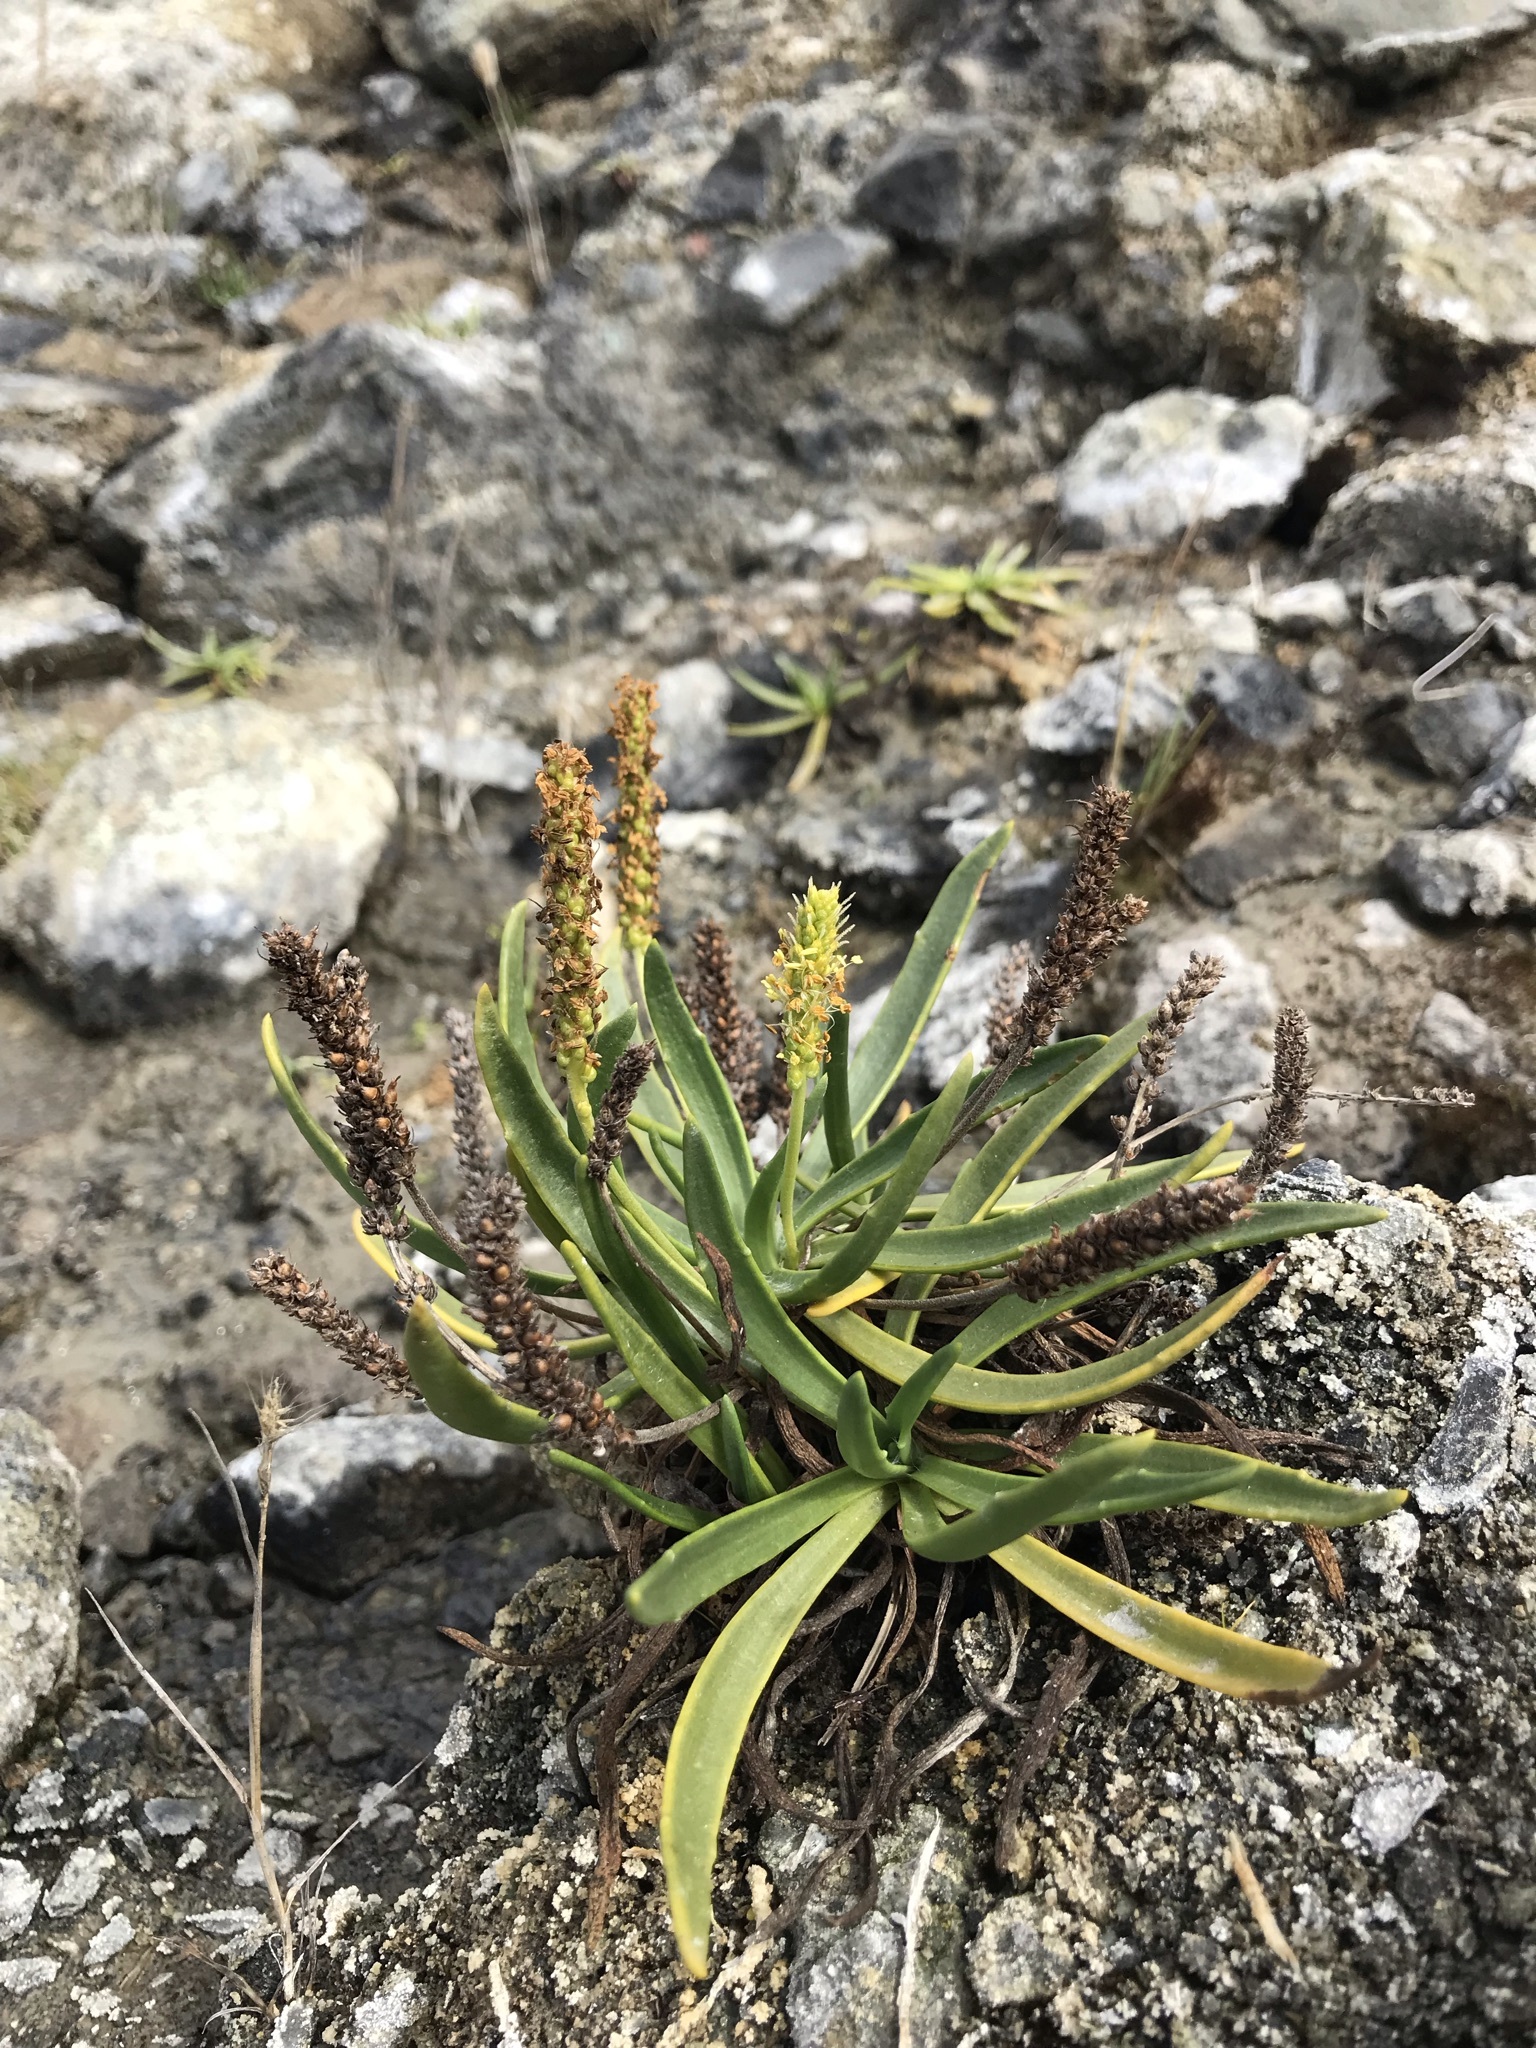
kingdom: Plantae
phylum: Tracheophyta
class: Magnoliopsida
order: Lamiales
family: Plantaginaceae
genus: Plantago
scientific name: Plantago maritima
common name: Sea plantain
